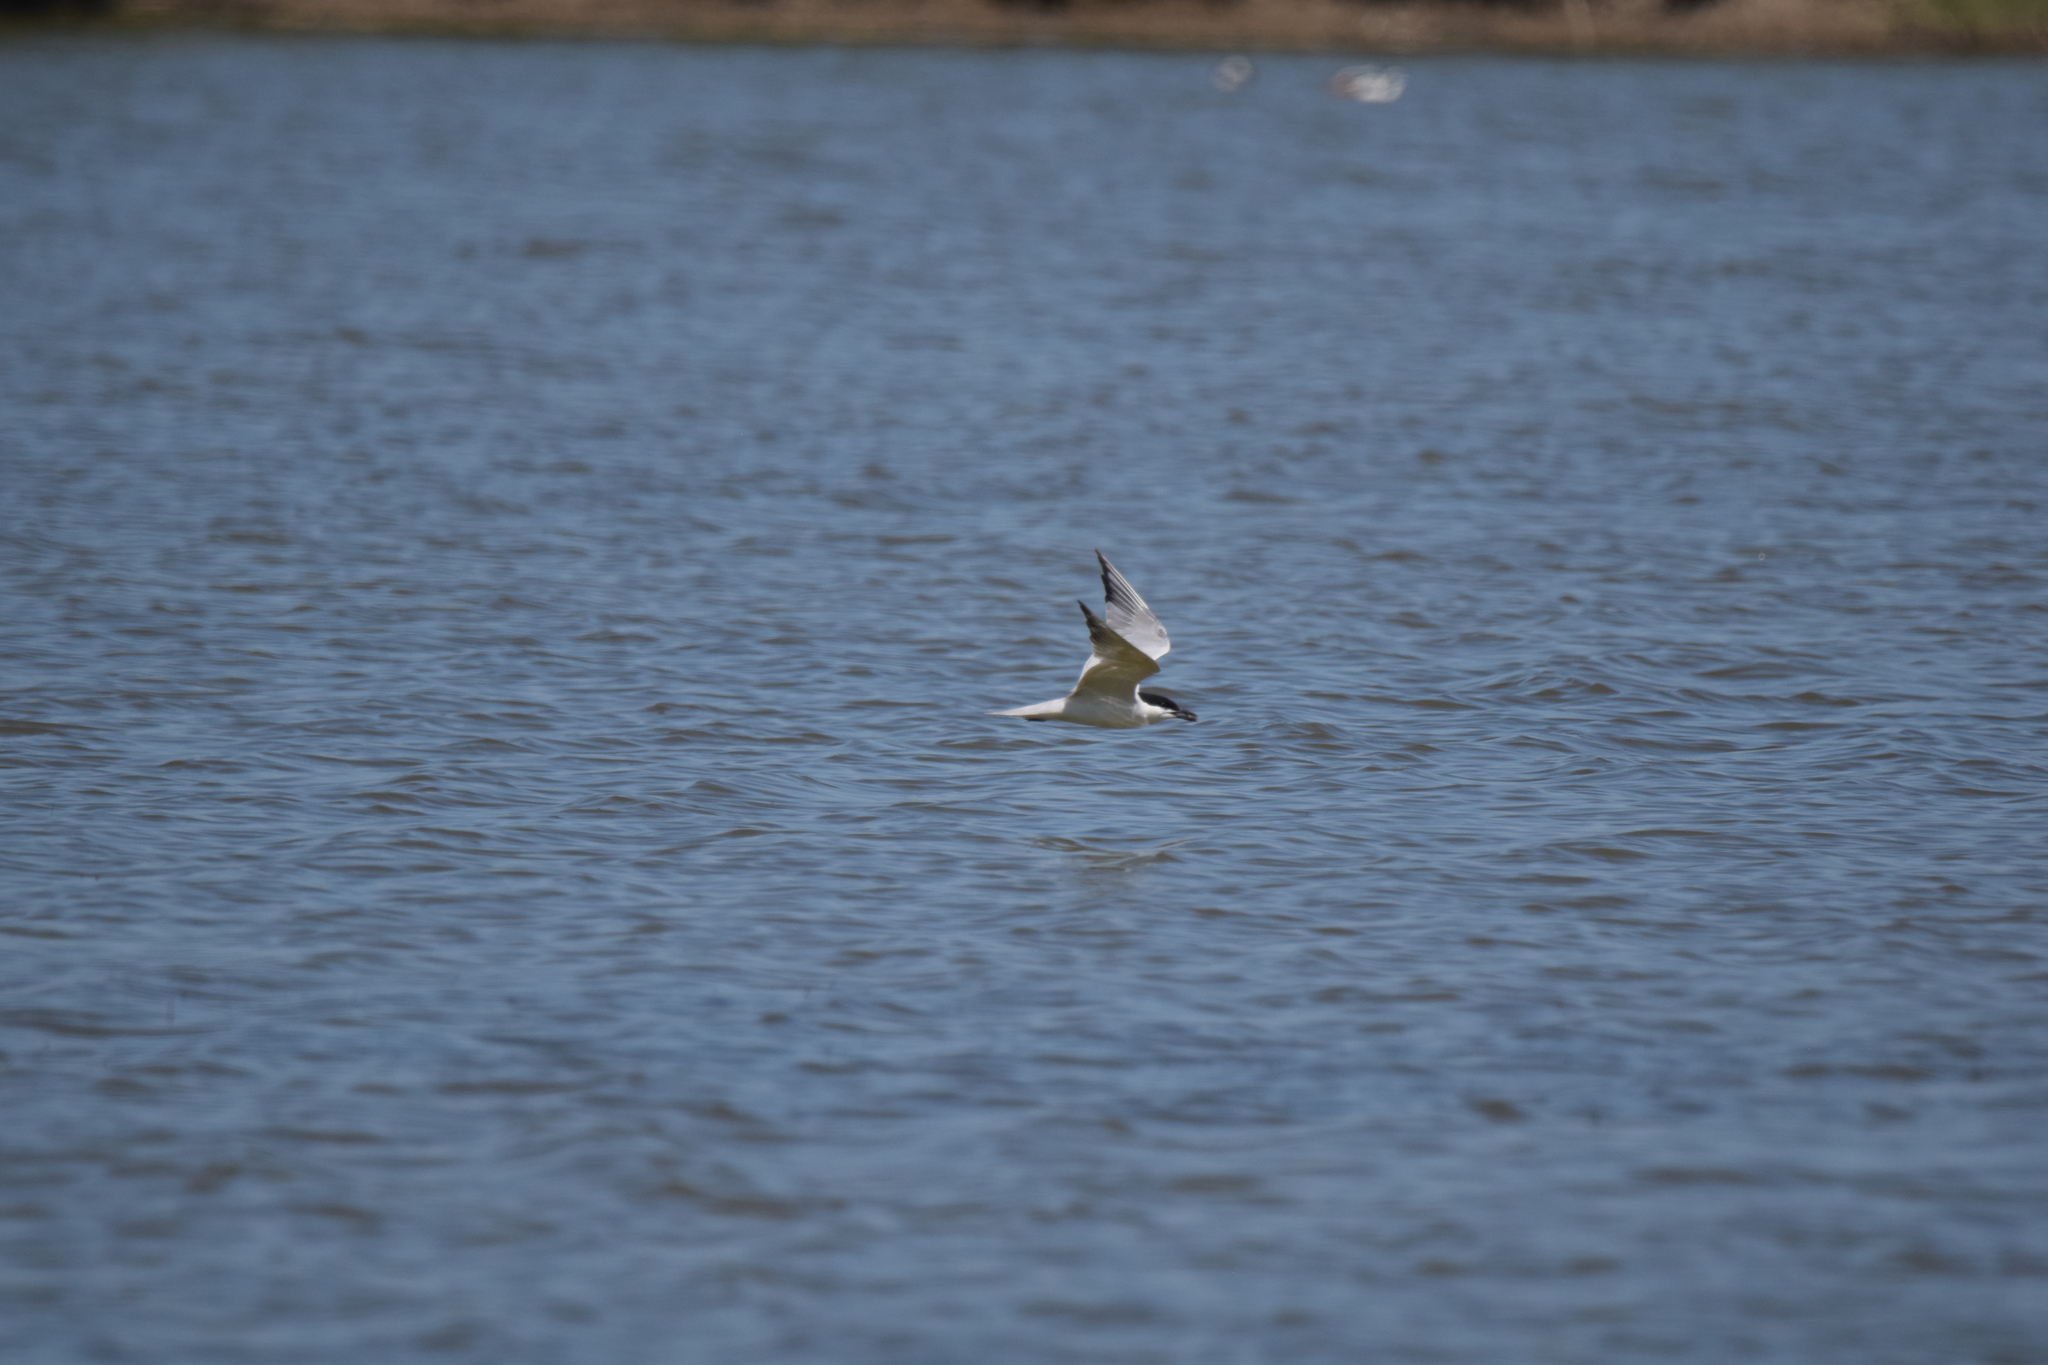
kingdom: Animalia
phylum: Chordata
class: Aves
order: Charadriiformes
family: Laridae
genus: Gelochelidon
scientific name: Gelochelidon nilotica
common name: Gull-billed tern
